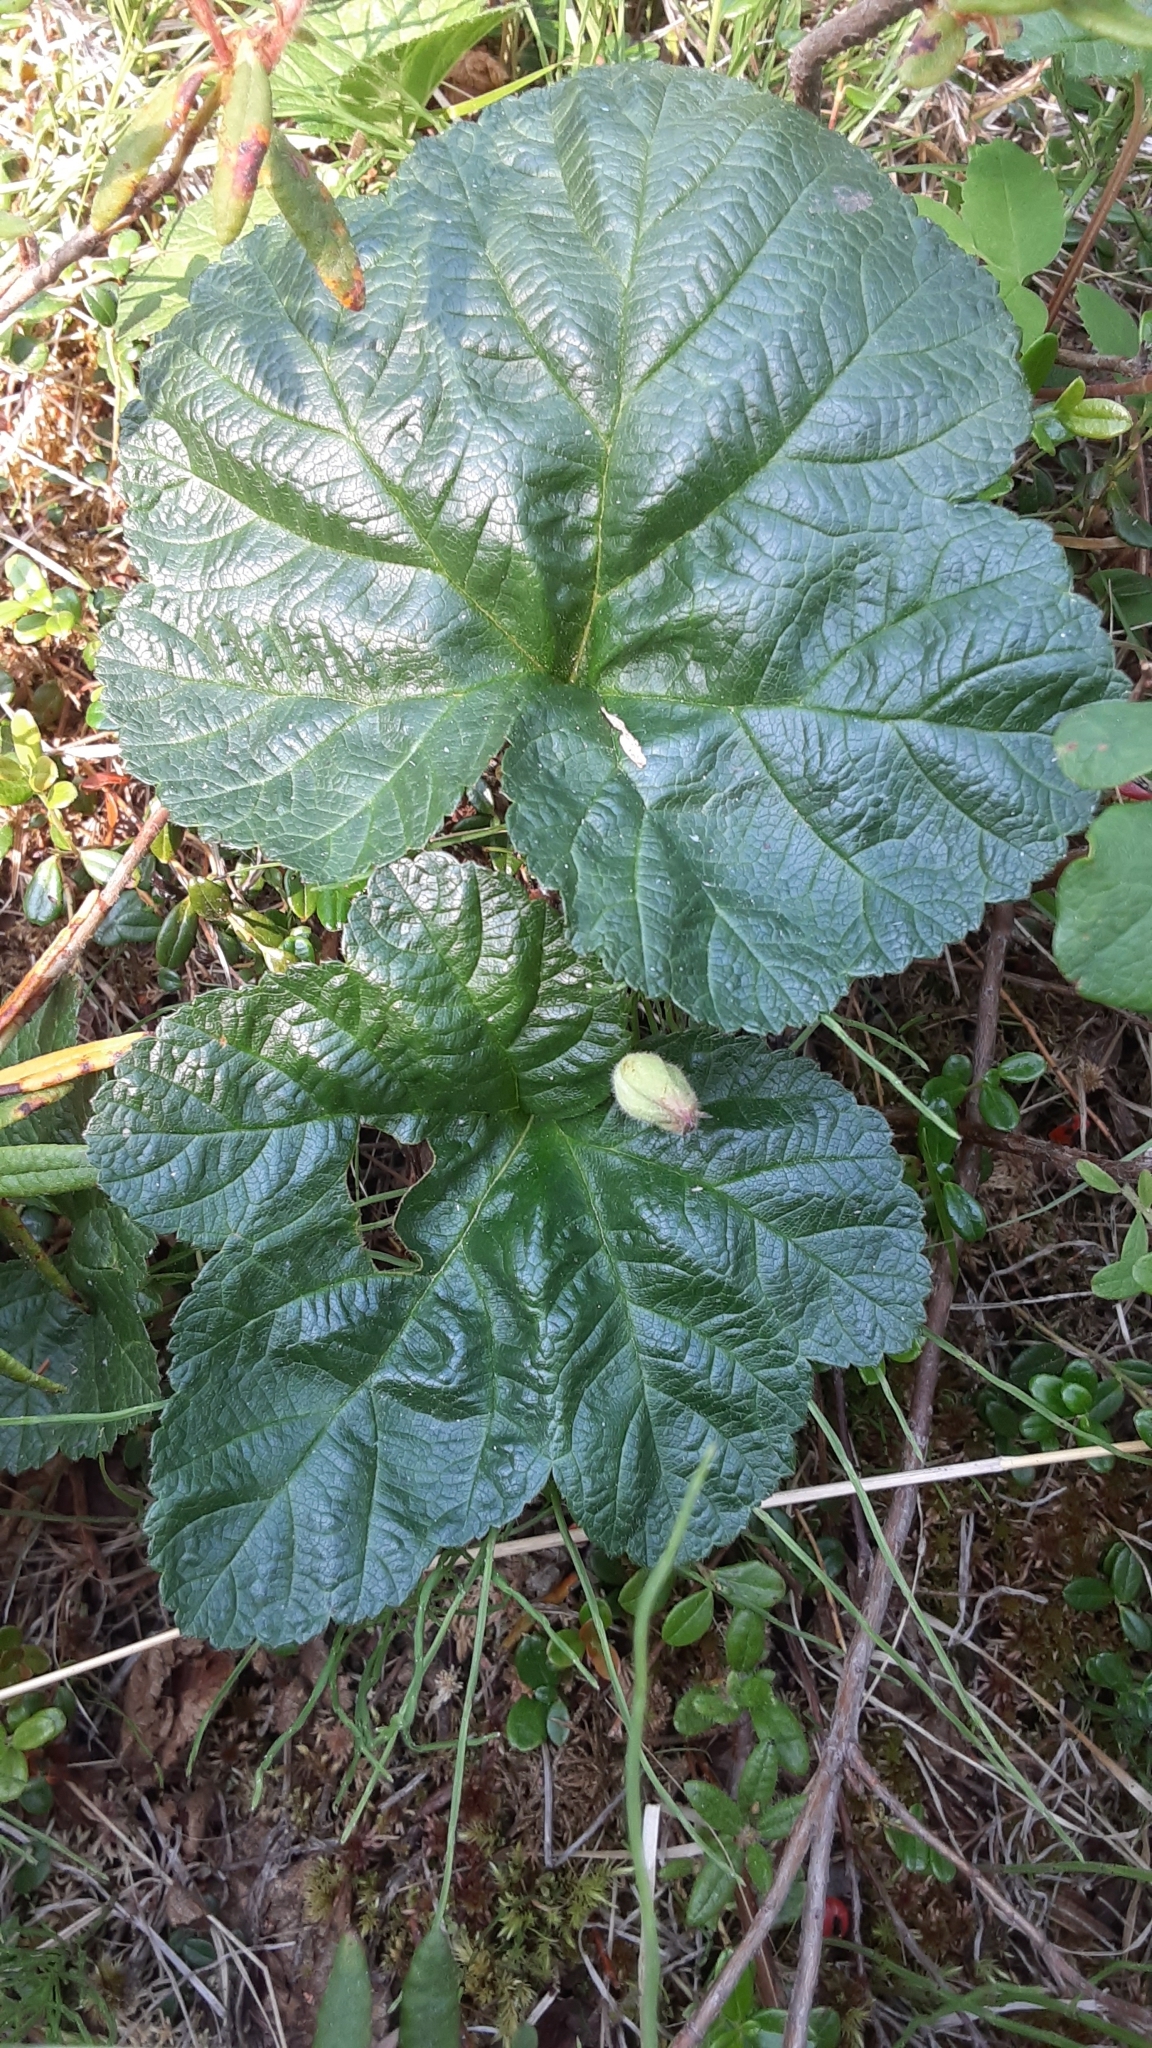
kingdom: Plantae
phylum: Tracheophyta
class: Magnoliopsida
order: Rosales
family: Rosaceae
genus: Rubus
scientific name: Rubus chamaemorus
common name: Cloudberry
